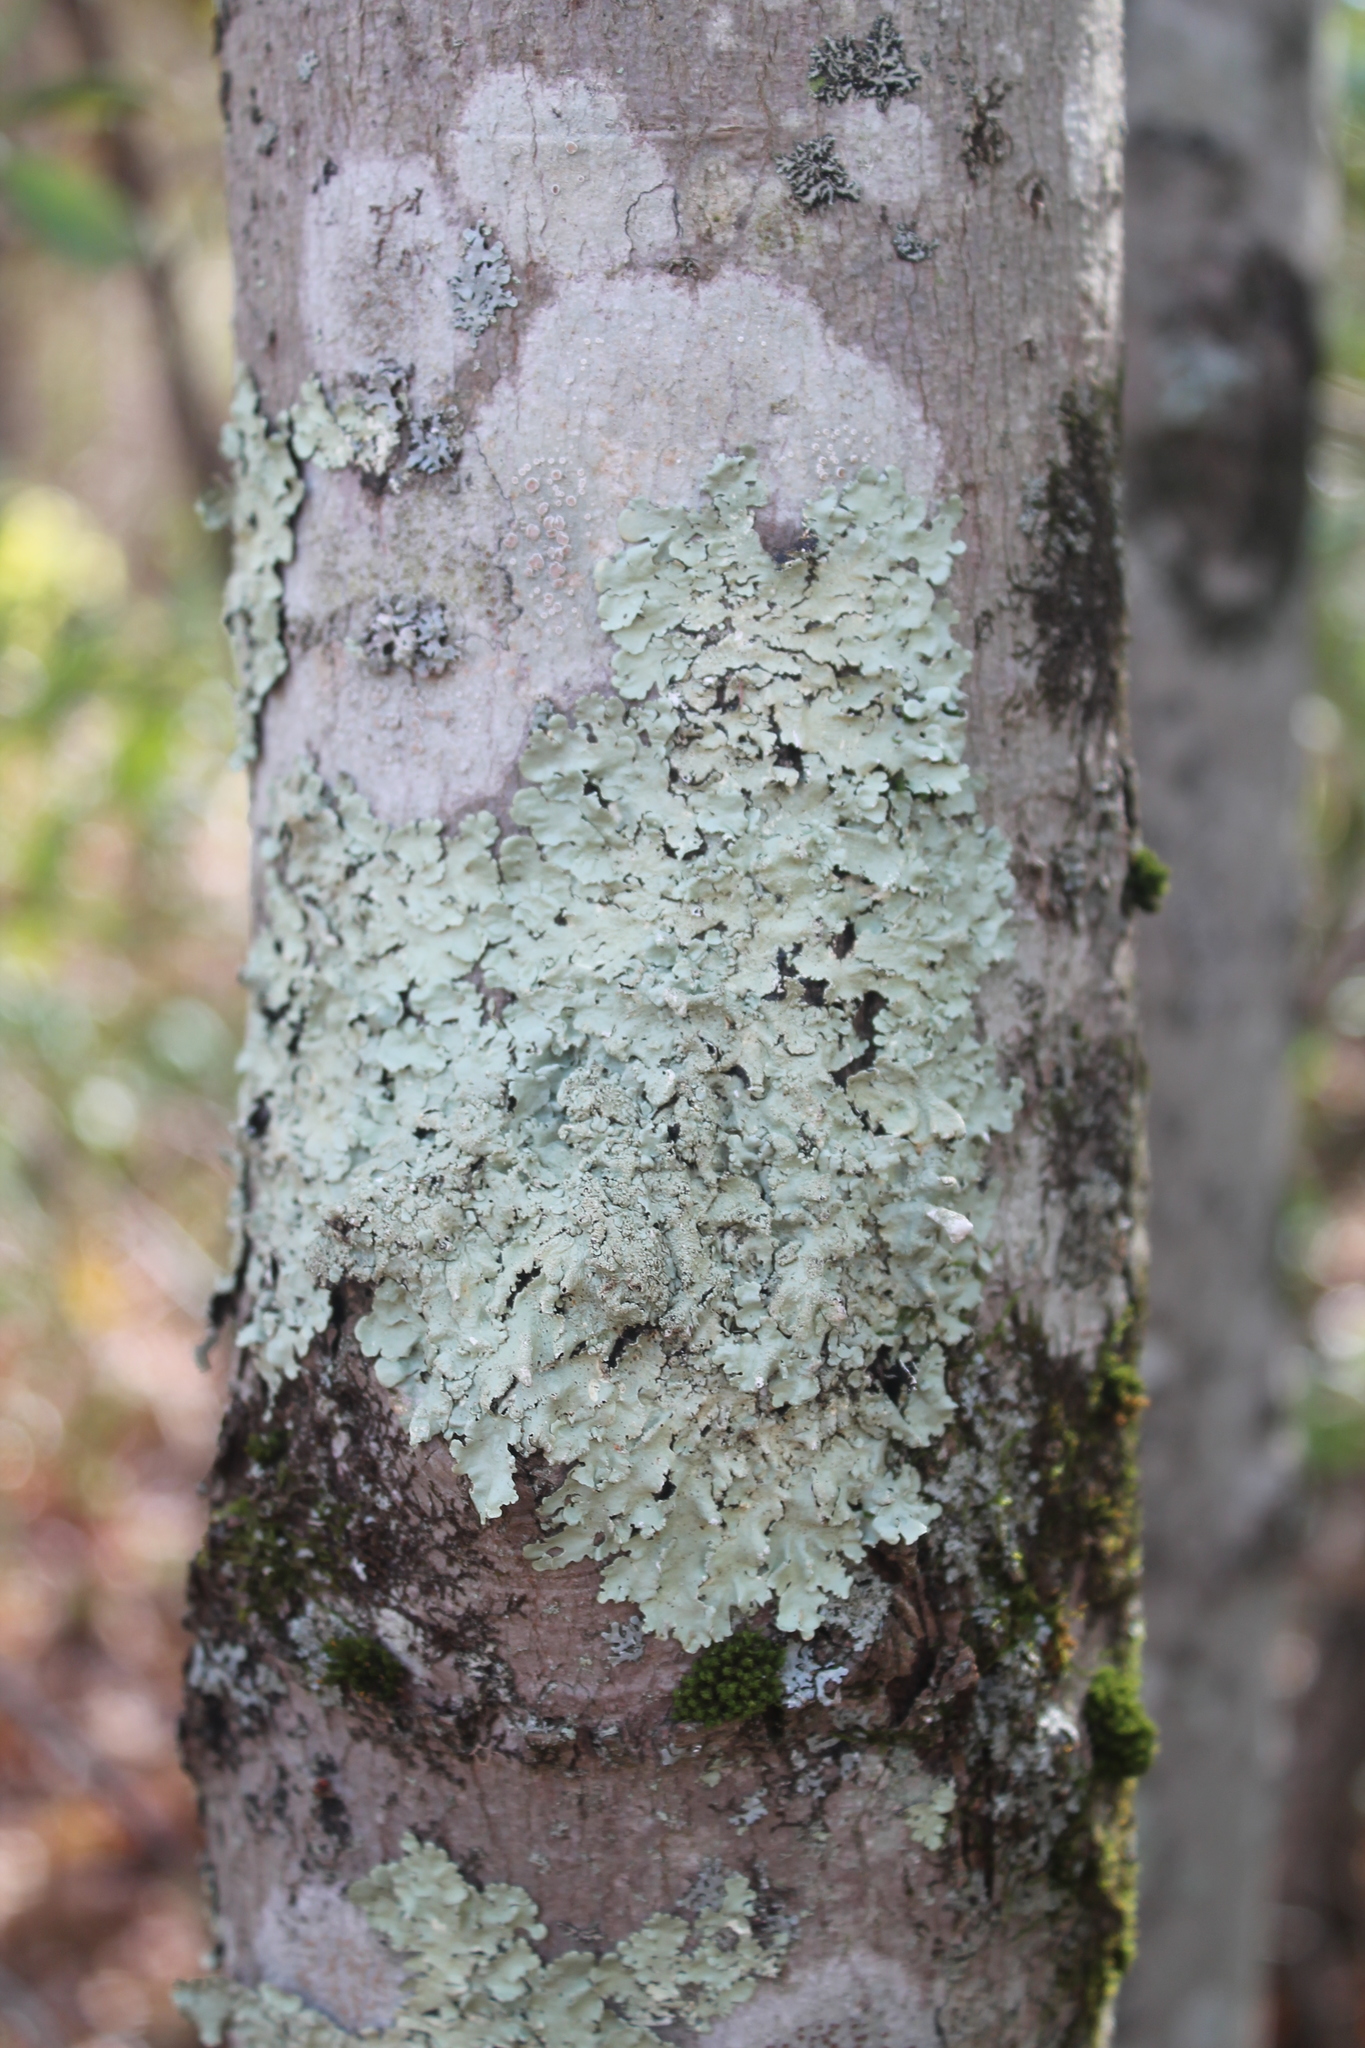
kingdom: Fungi
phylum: Ascomycota
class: Lecanoromycetes
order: Lecanorales
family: Parmeliaceae
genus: Flavoparmelia
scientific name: Flavoparmelia caperata
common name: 40-mile per hour lichen
